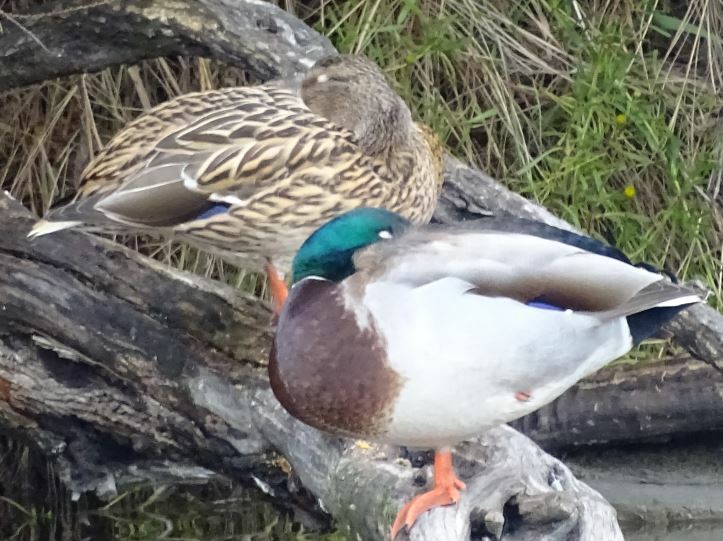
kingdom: Animalia
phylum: Chordata
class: Aves
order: Anseriformes
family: Anatidae
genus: Anas
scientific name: Anas platyrhynchos
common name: Mallard
